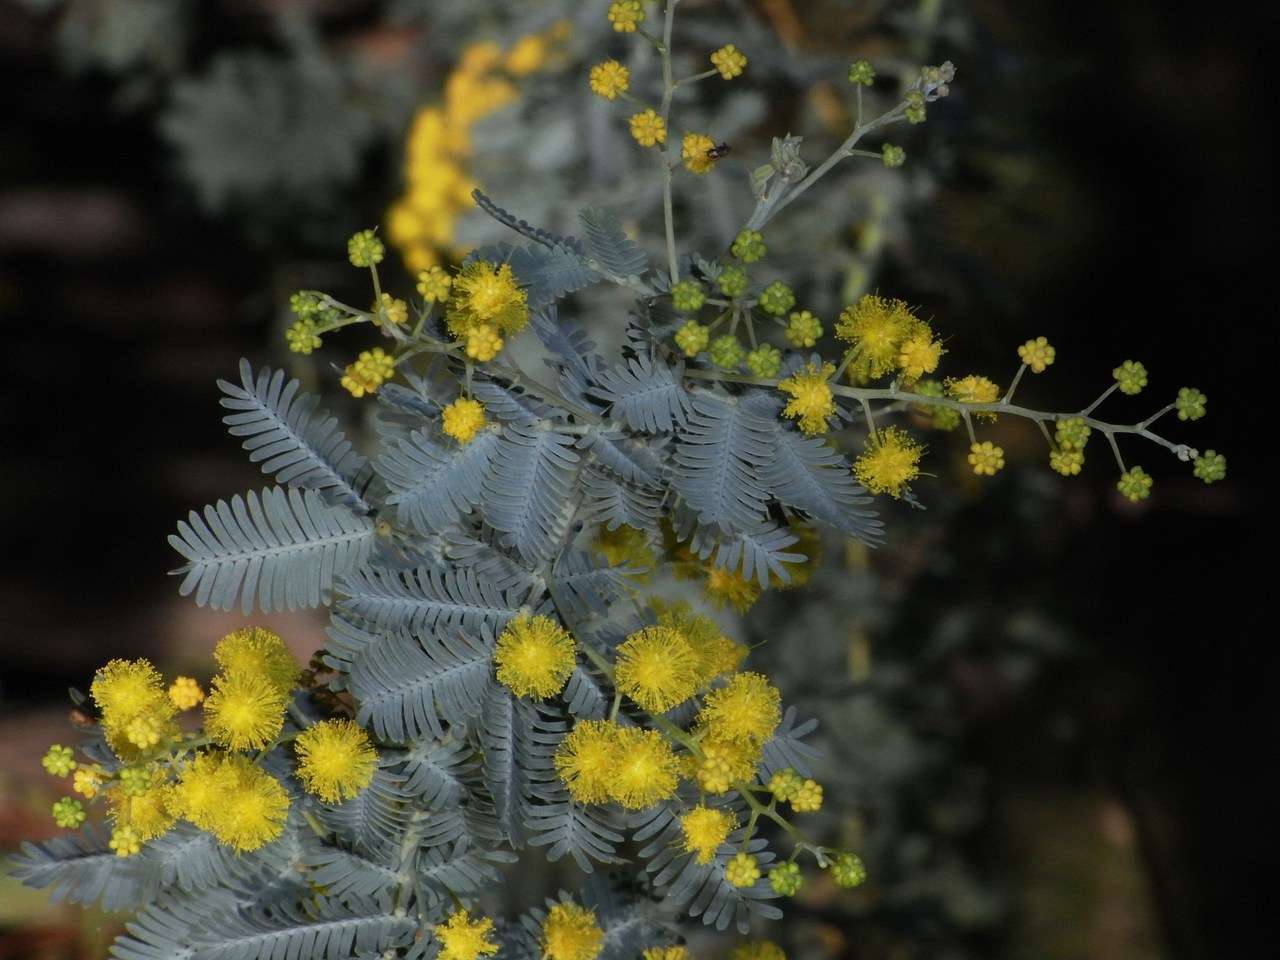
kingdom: Plantae
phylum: Tracheophyta
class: Magnoliopsida
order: Fabales
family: Fabaceae
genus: Acacia
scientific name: Acacia baileyana
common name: Cootamundra wattle
